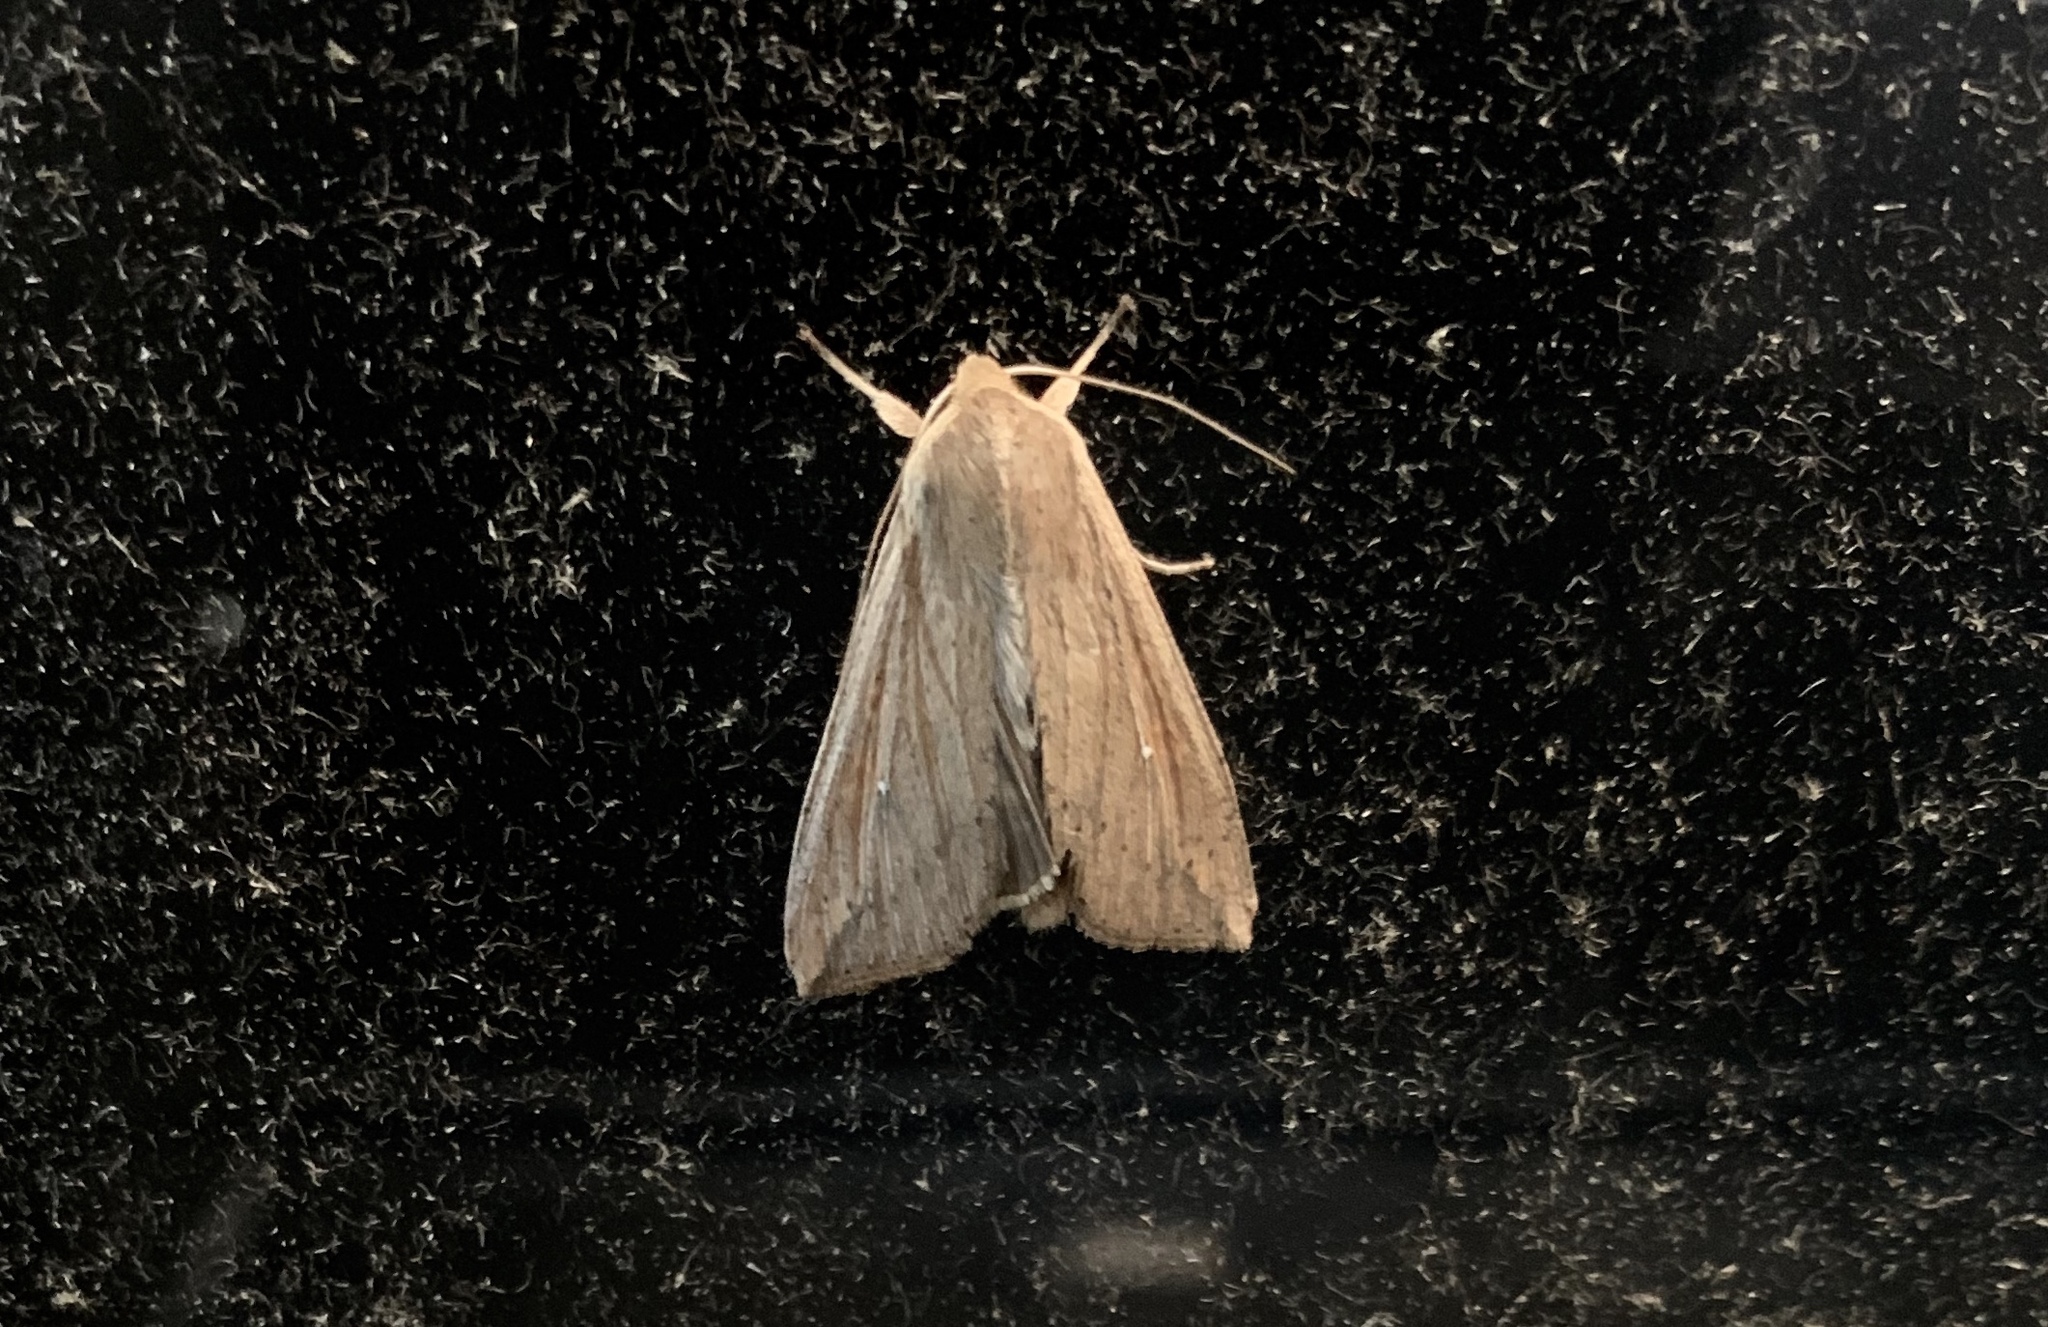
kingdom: Animalia
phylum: Arthropoda
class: Insecta
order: Lepidoptera
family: Noctuidae
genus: Mythimna
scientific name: Mythimna unipuncta
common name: White-speck
